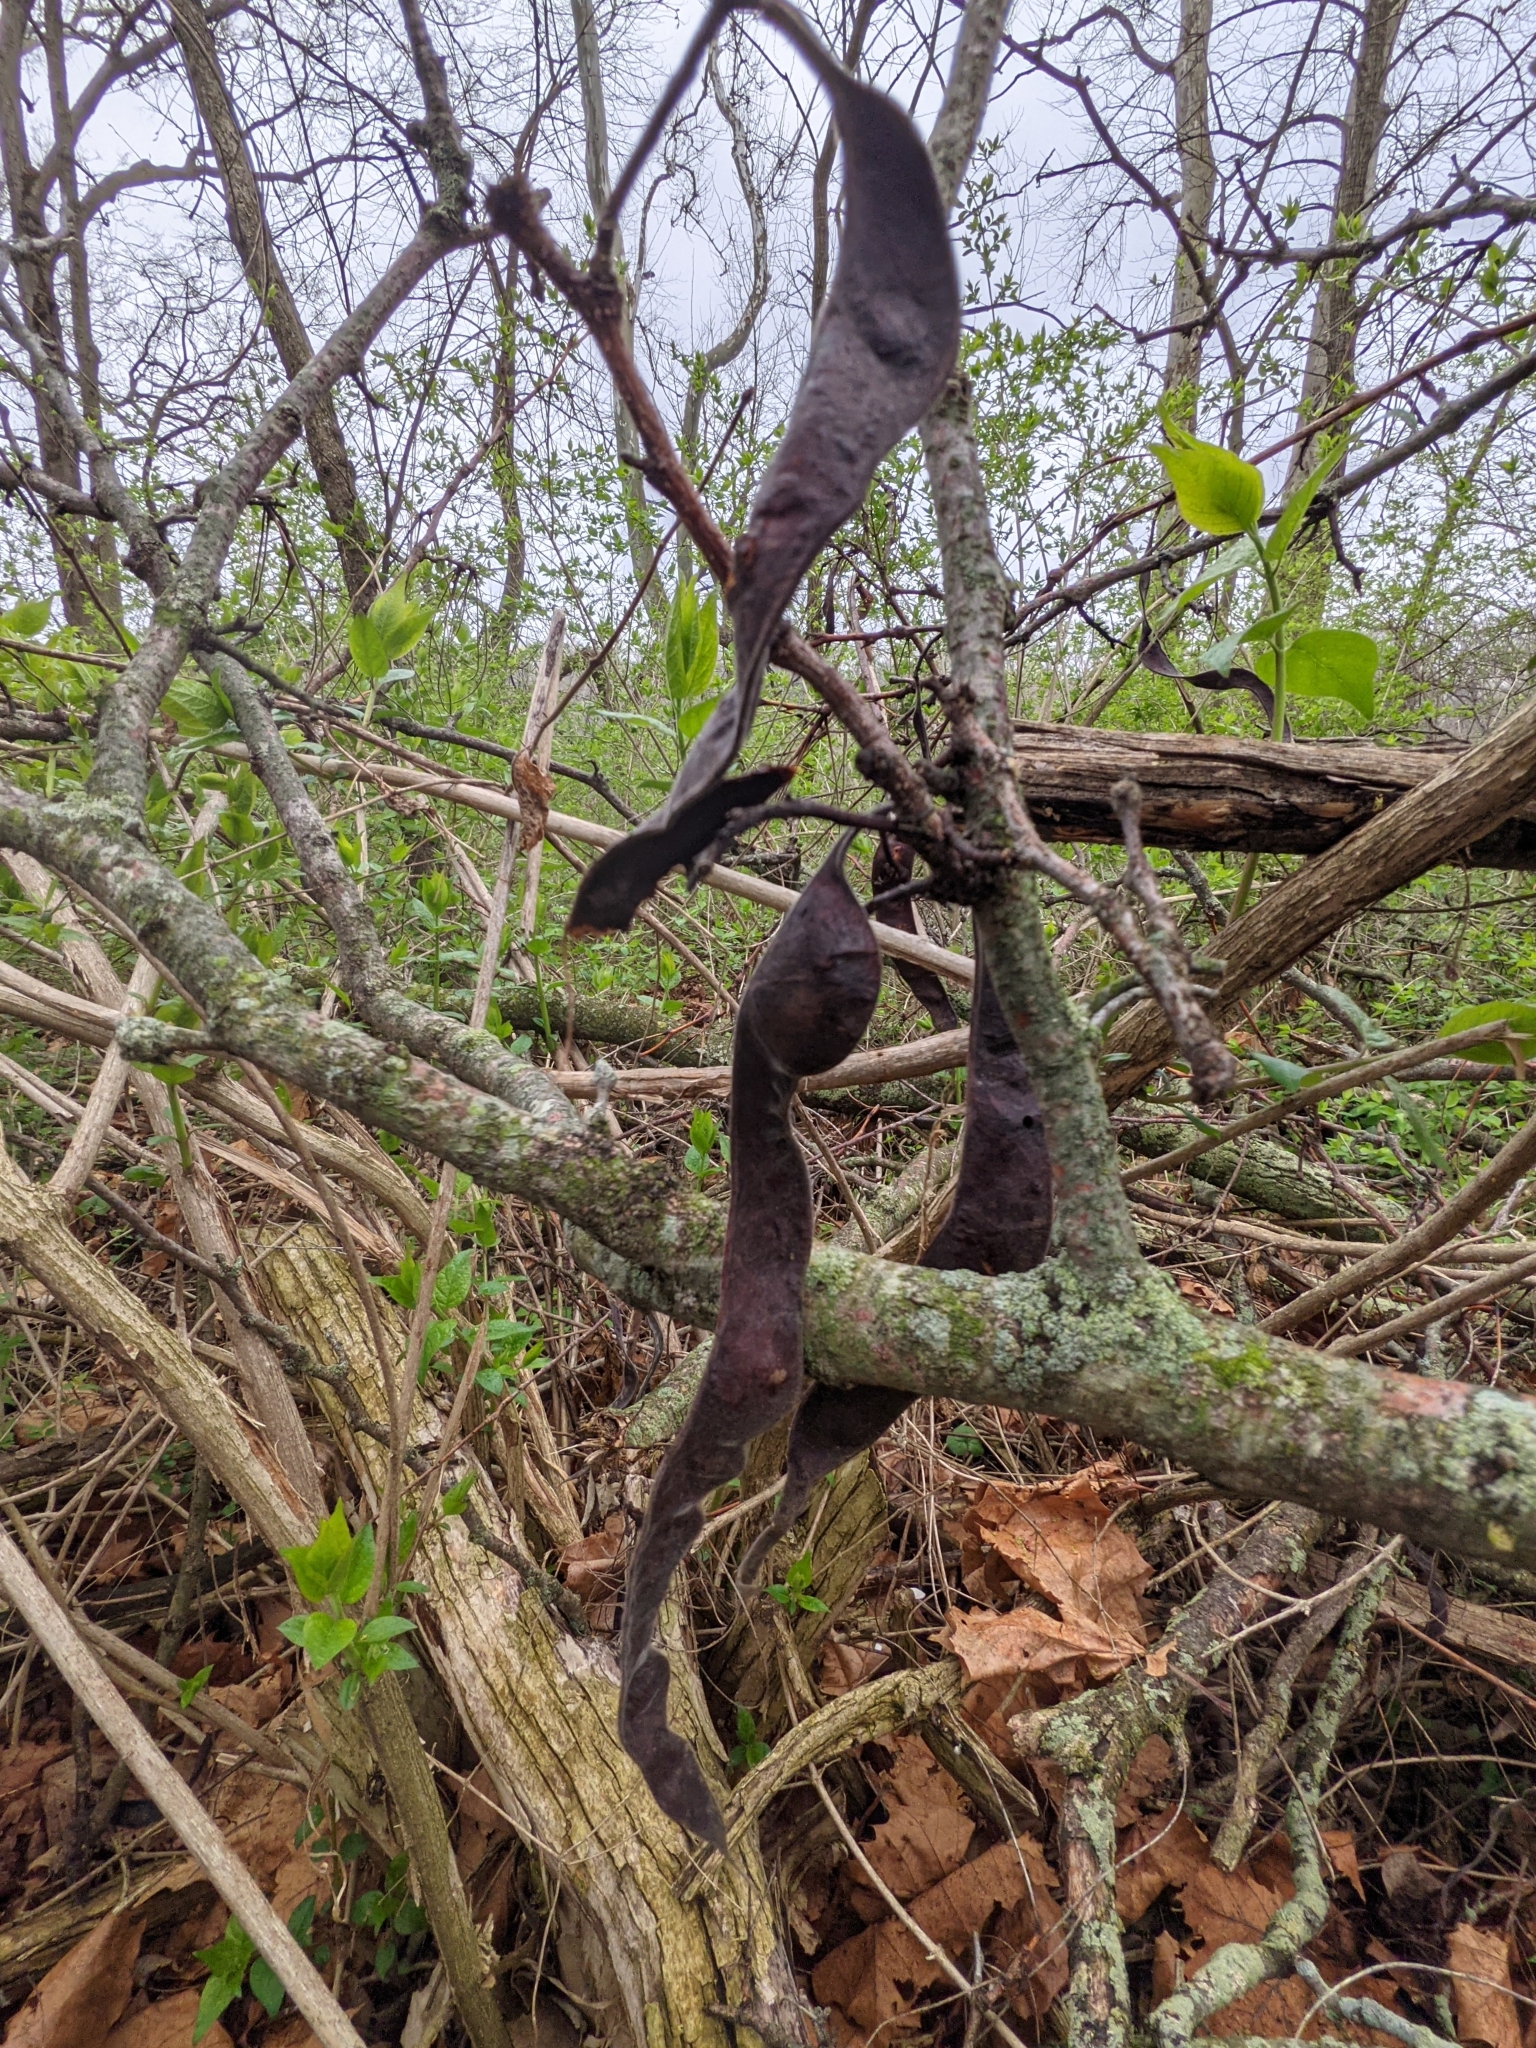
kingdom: Plantae
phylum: Tracheophyta
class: Magnoliopsida
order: Fabales
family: Fabaceae
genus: Gleditsia
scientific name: Gleditsia triacanthos
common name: Common honeylocust
